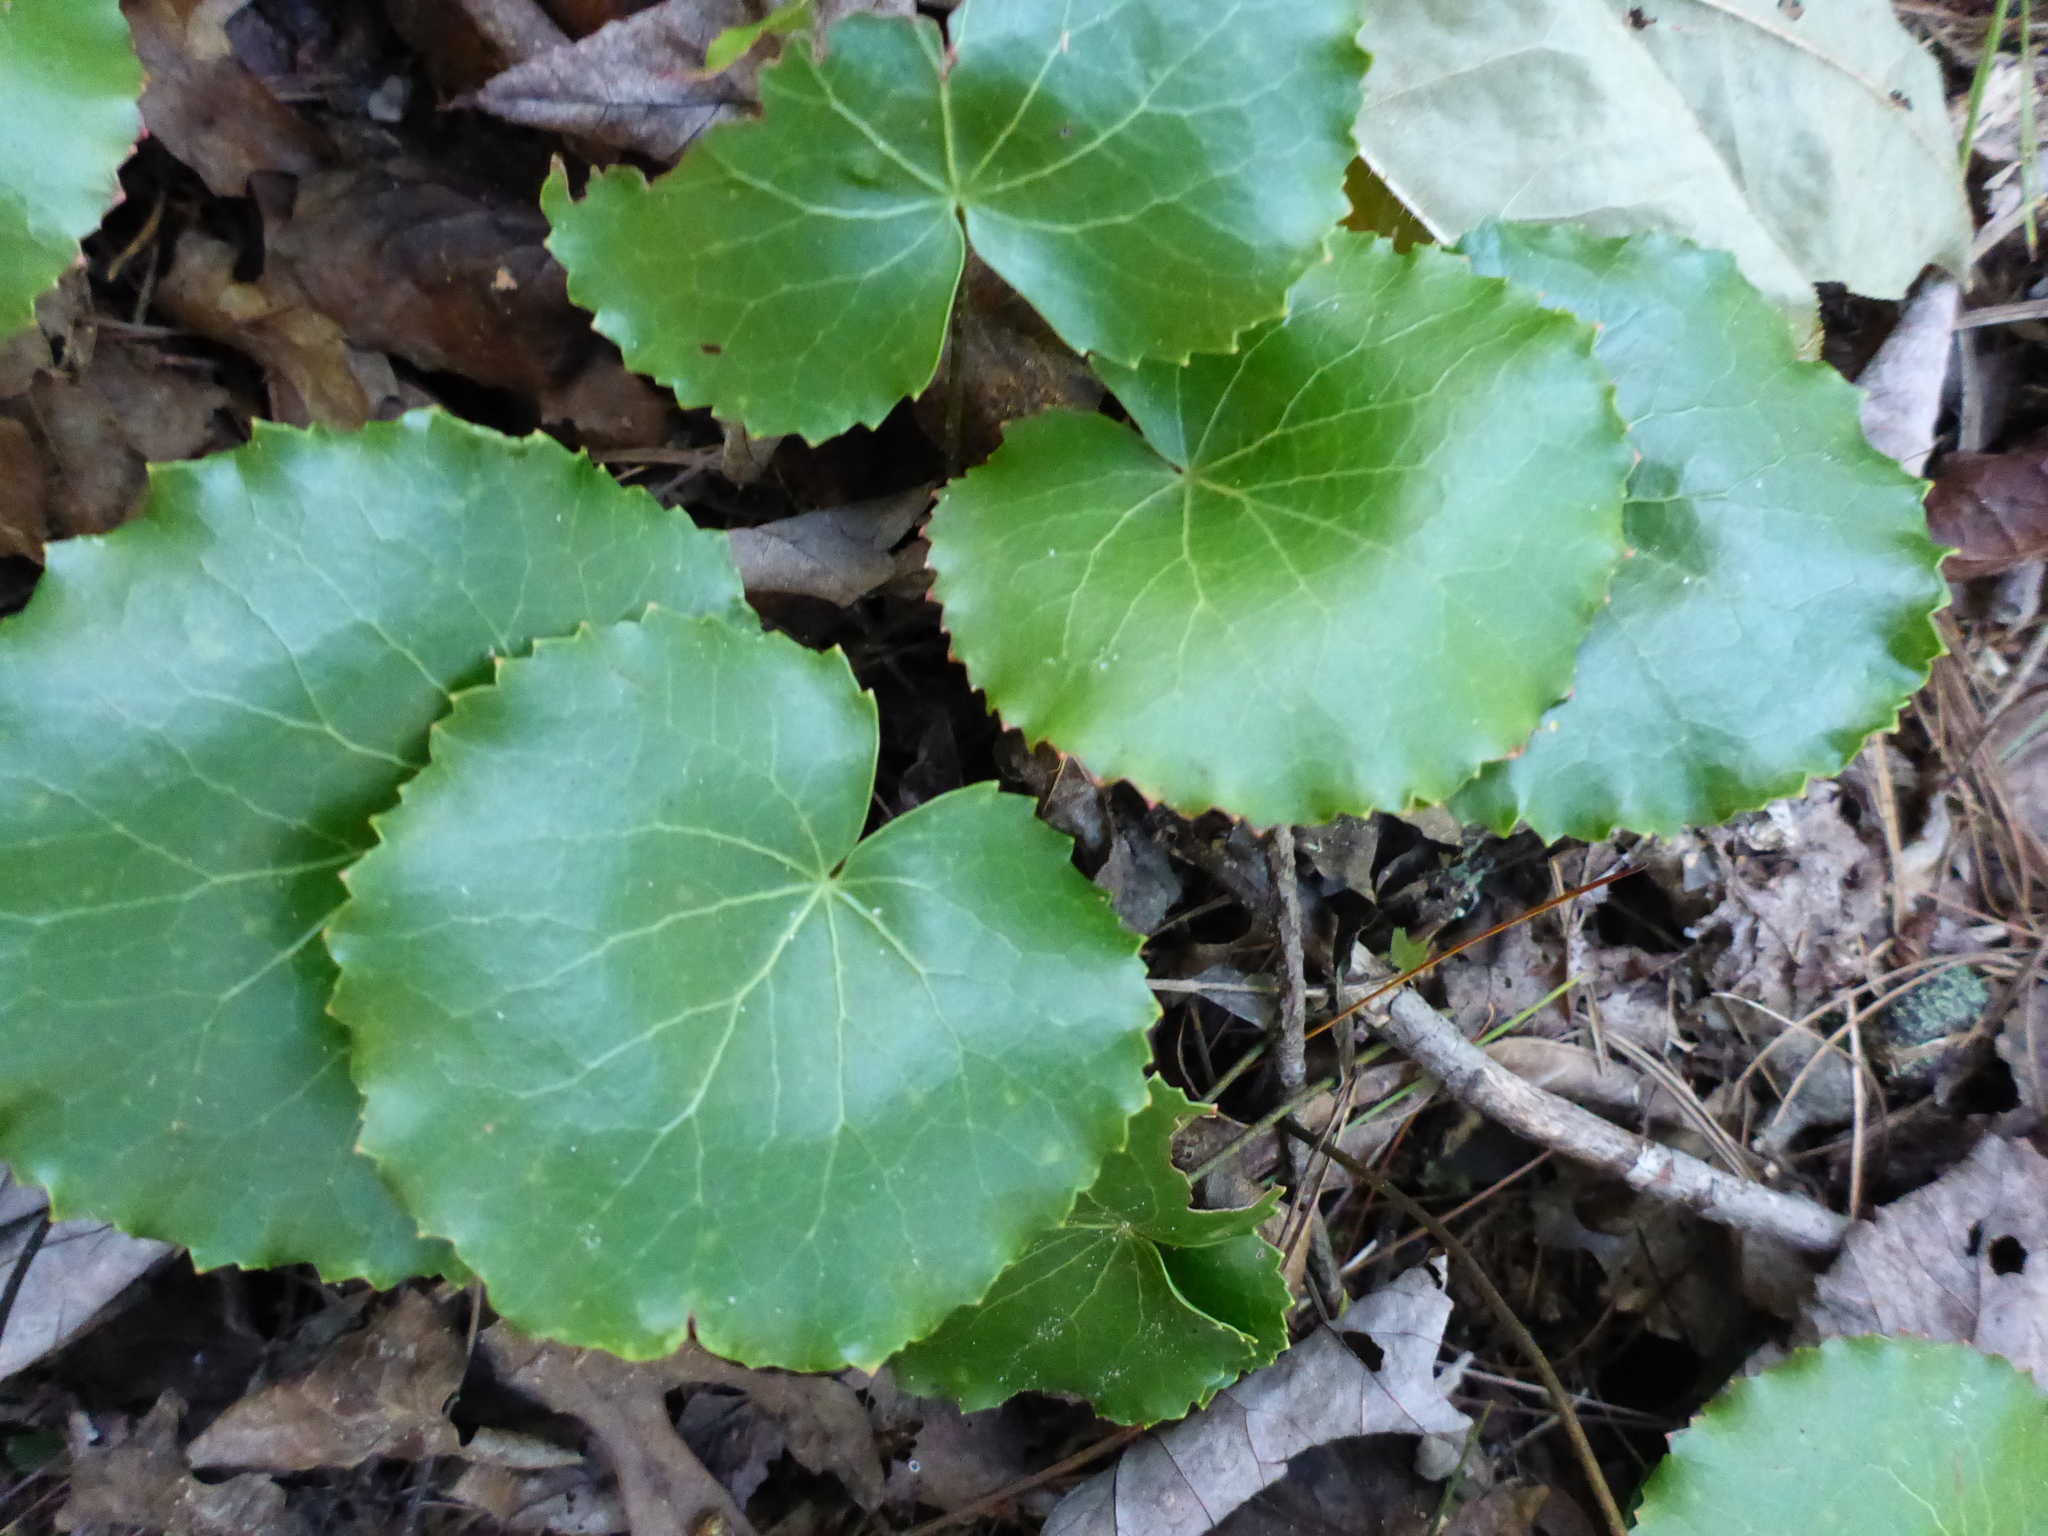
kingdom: Plantae
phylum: Tracheophyta
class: Magnoliopsida
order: Ericales
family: Diapensiaceae
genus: Galax
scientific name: Galax urceolata
